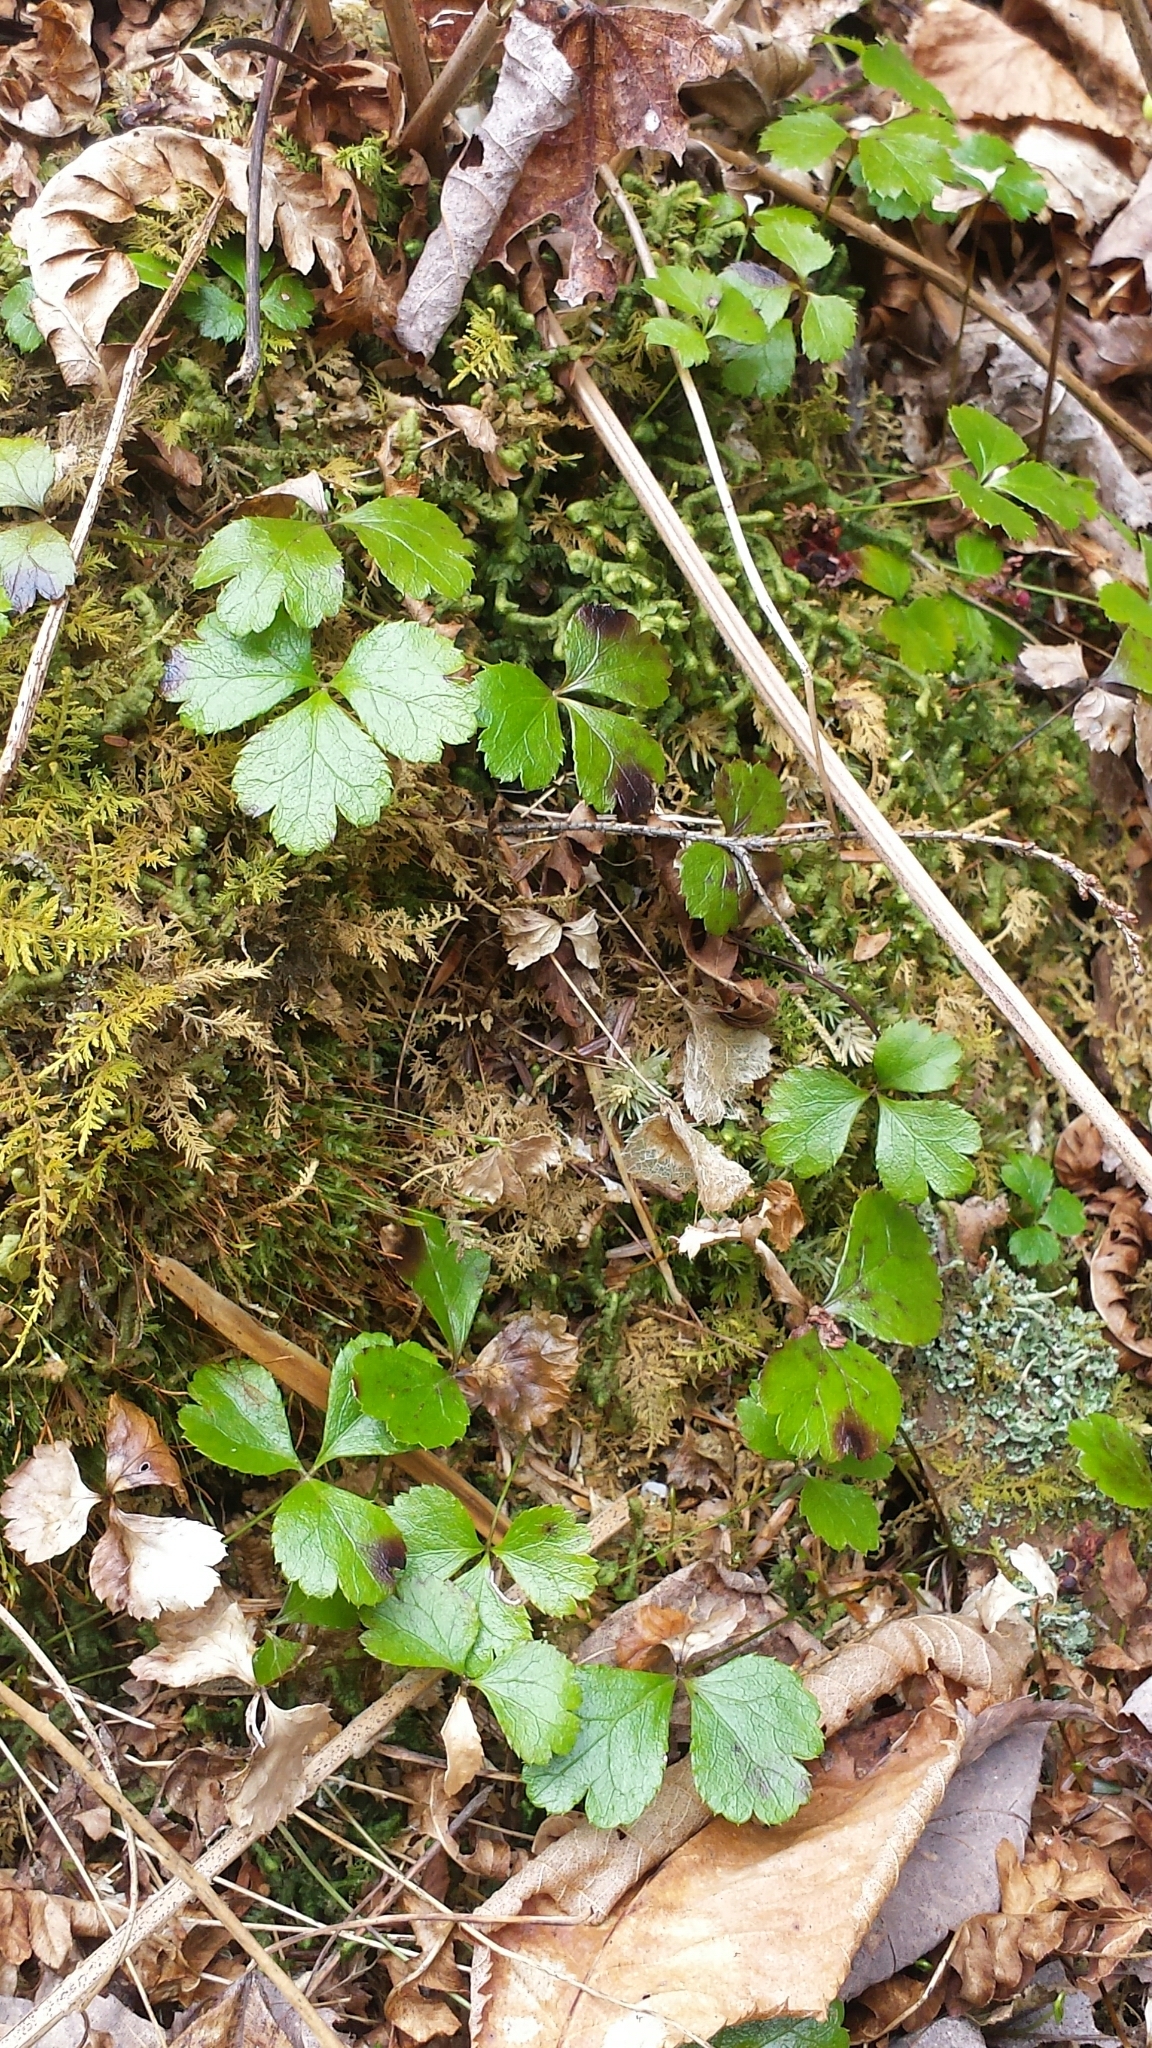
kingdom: Plantae
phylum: Tracheophyta
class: Magnoliopsida
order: Ranunculales
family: Ranunculaceae
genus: Coptis
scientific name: Coptis trifolia
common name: Canker-root
